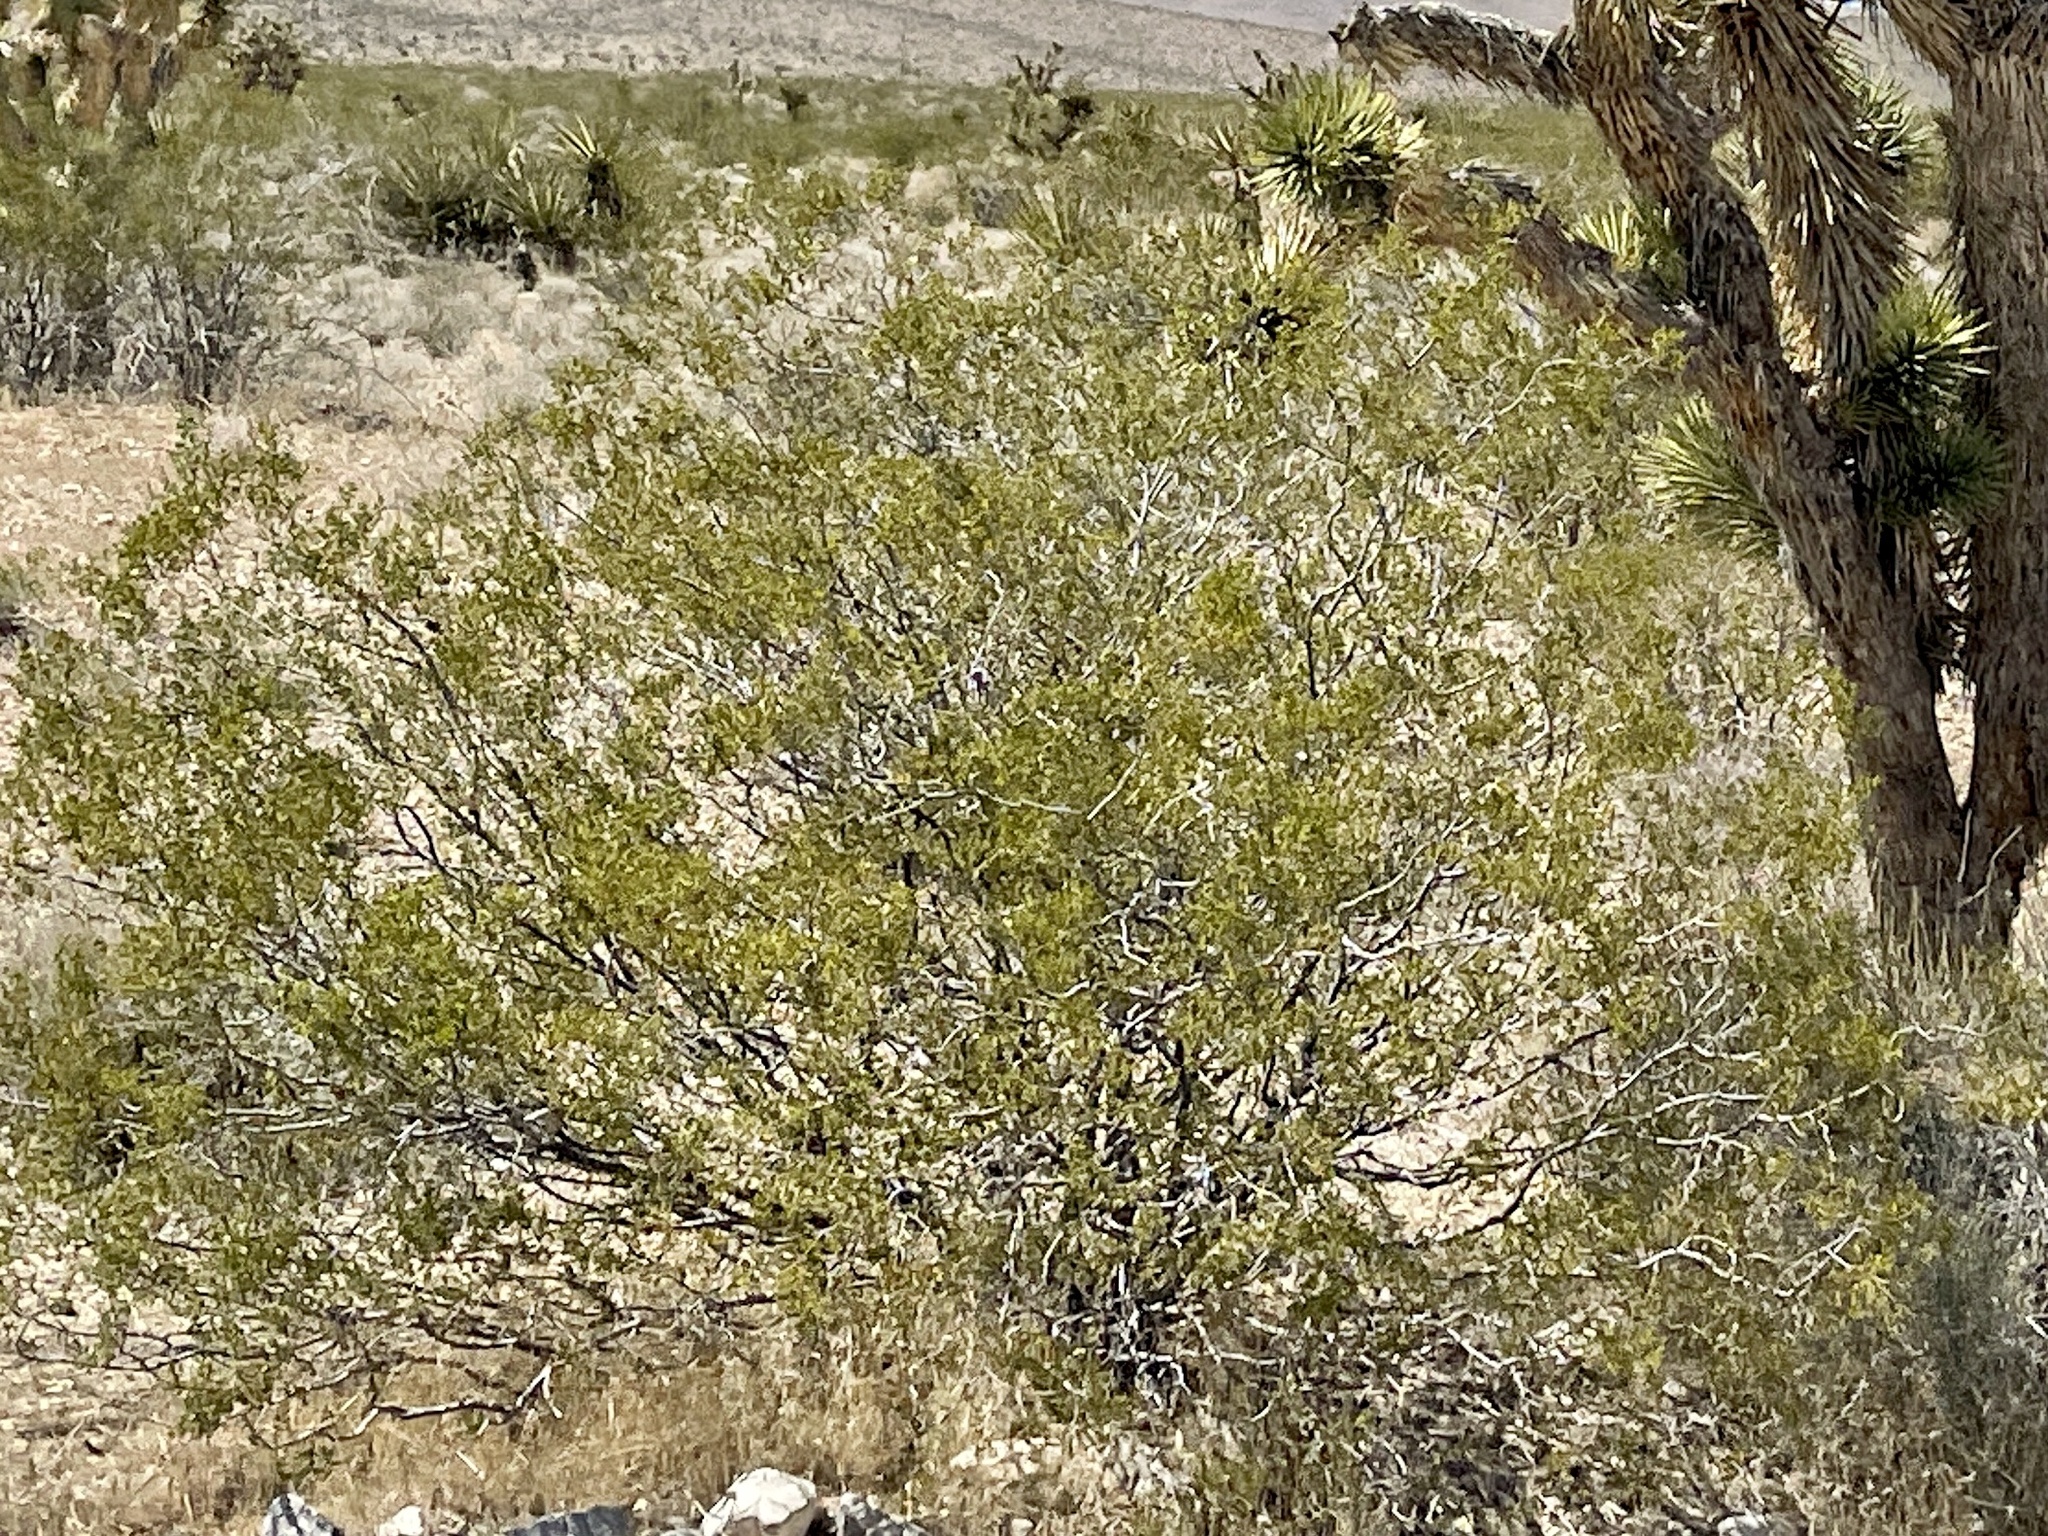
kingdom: Plantae
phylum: Tracheophyta
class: Magnoliopsida
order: Zygophyllales
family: Zygophyllaceae
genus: Larrea
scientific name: Larrea tridentata
